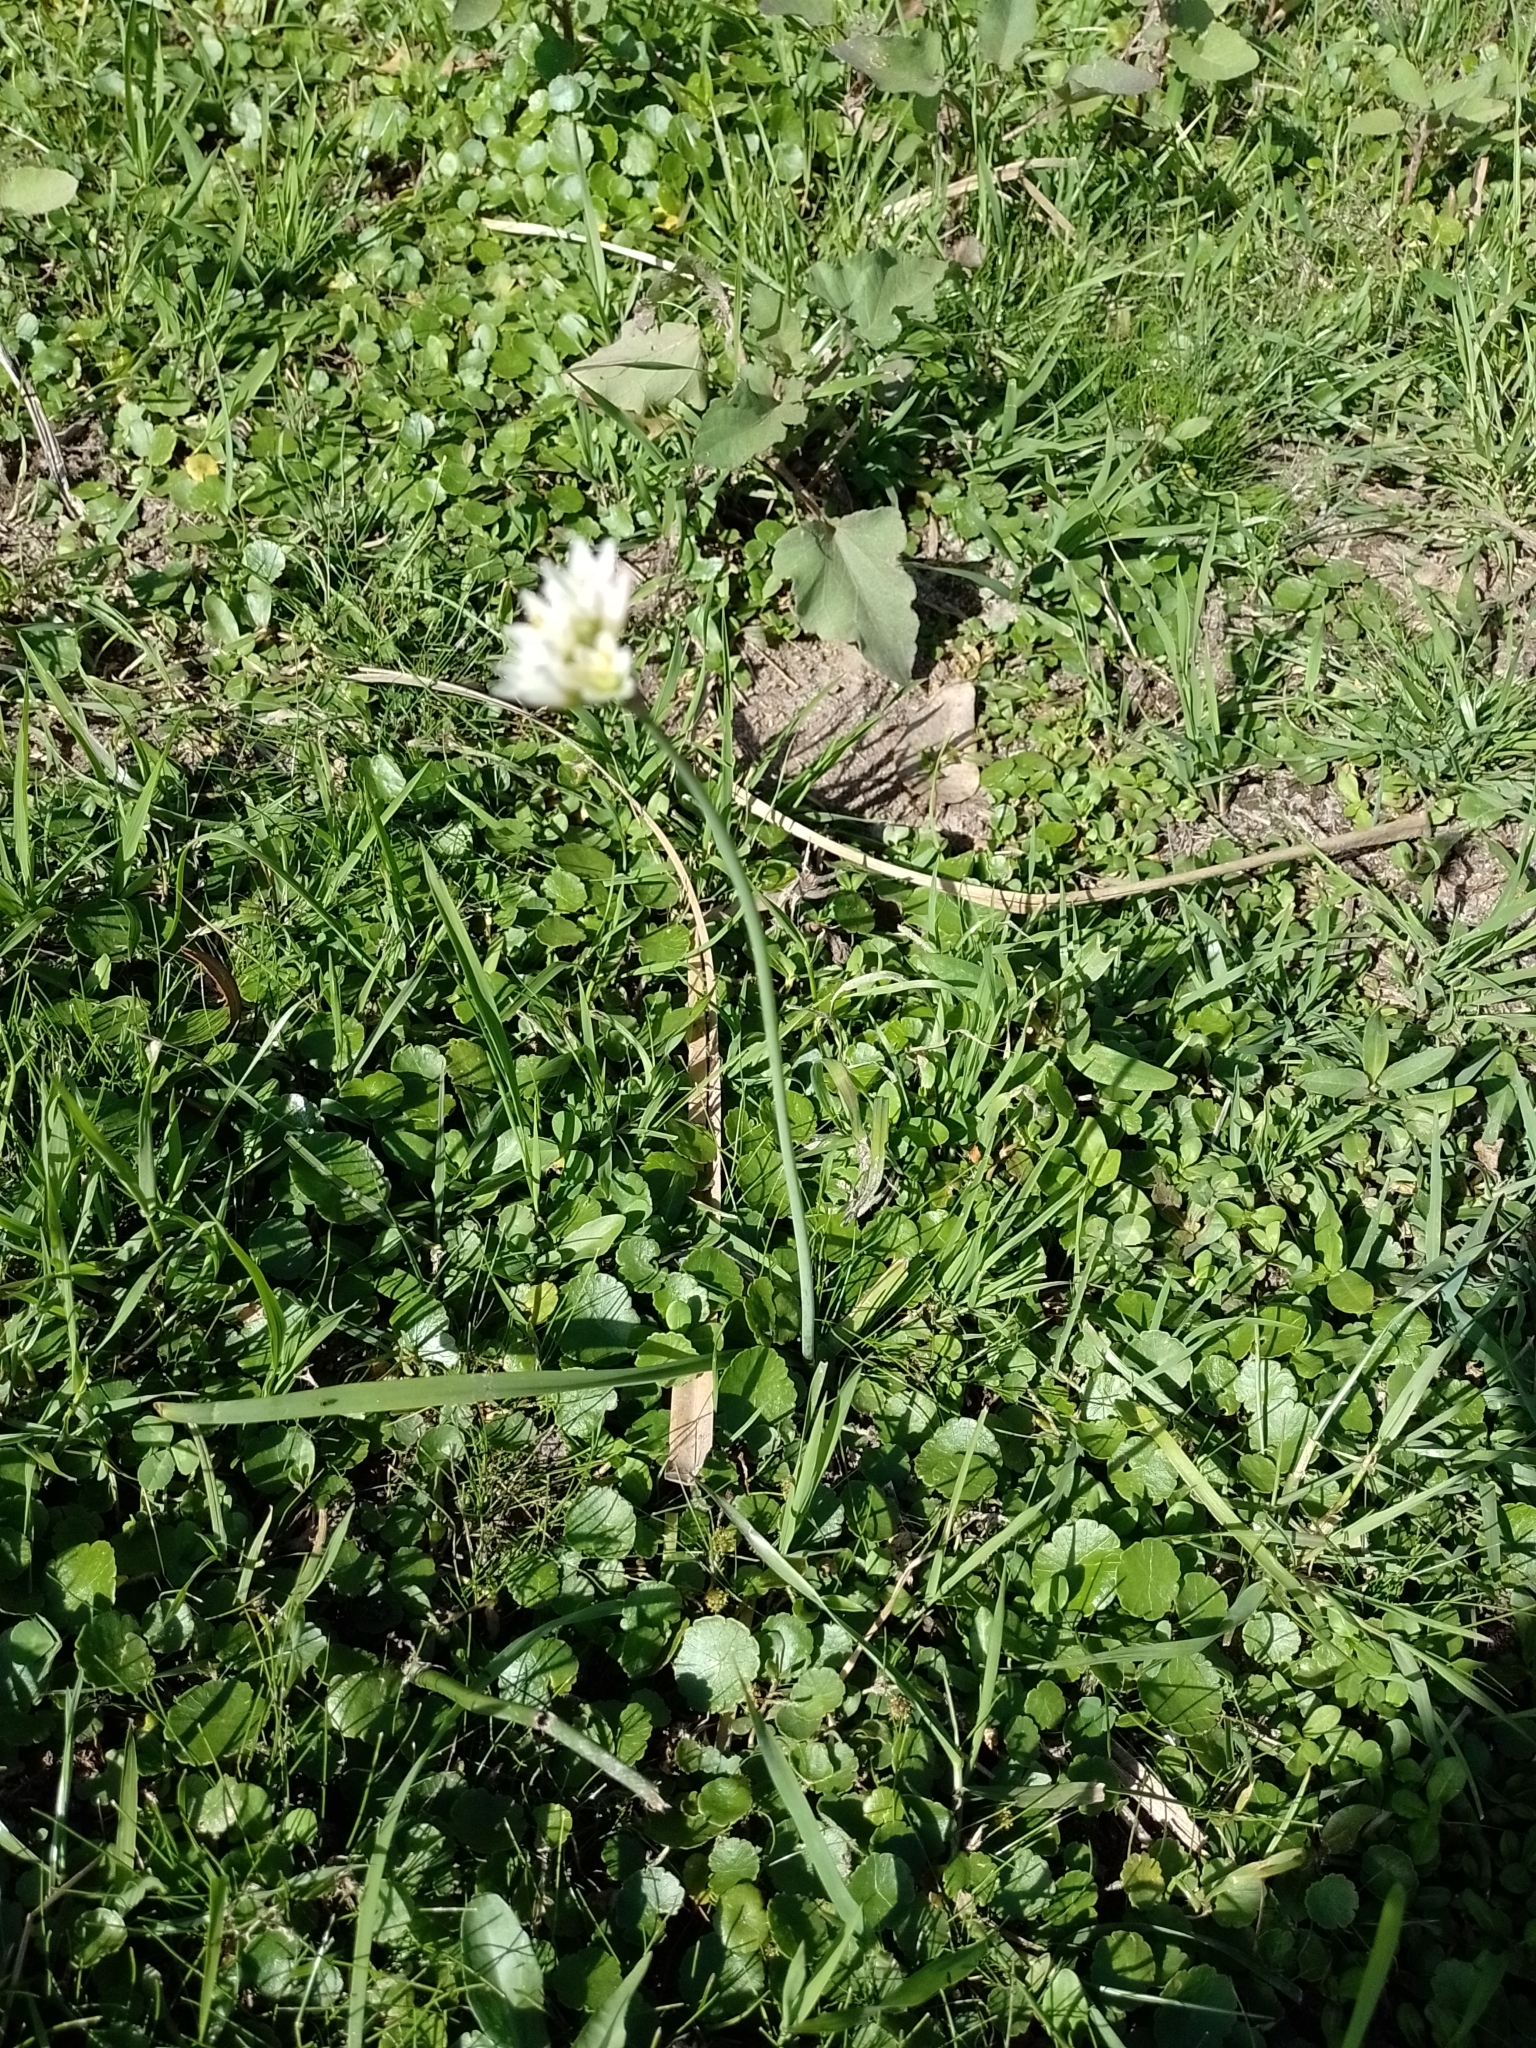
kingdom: Plantae
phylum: Tracheophyta
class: Liliopsida
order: Asparagales
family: Amaryllidaceae
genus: Nothoscordum
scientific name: Nothoscordum gracile
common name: Slender false garlic
